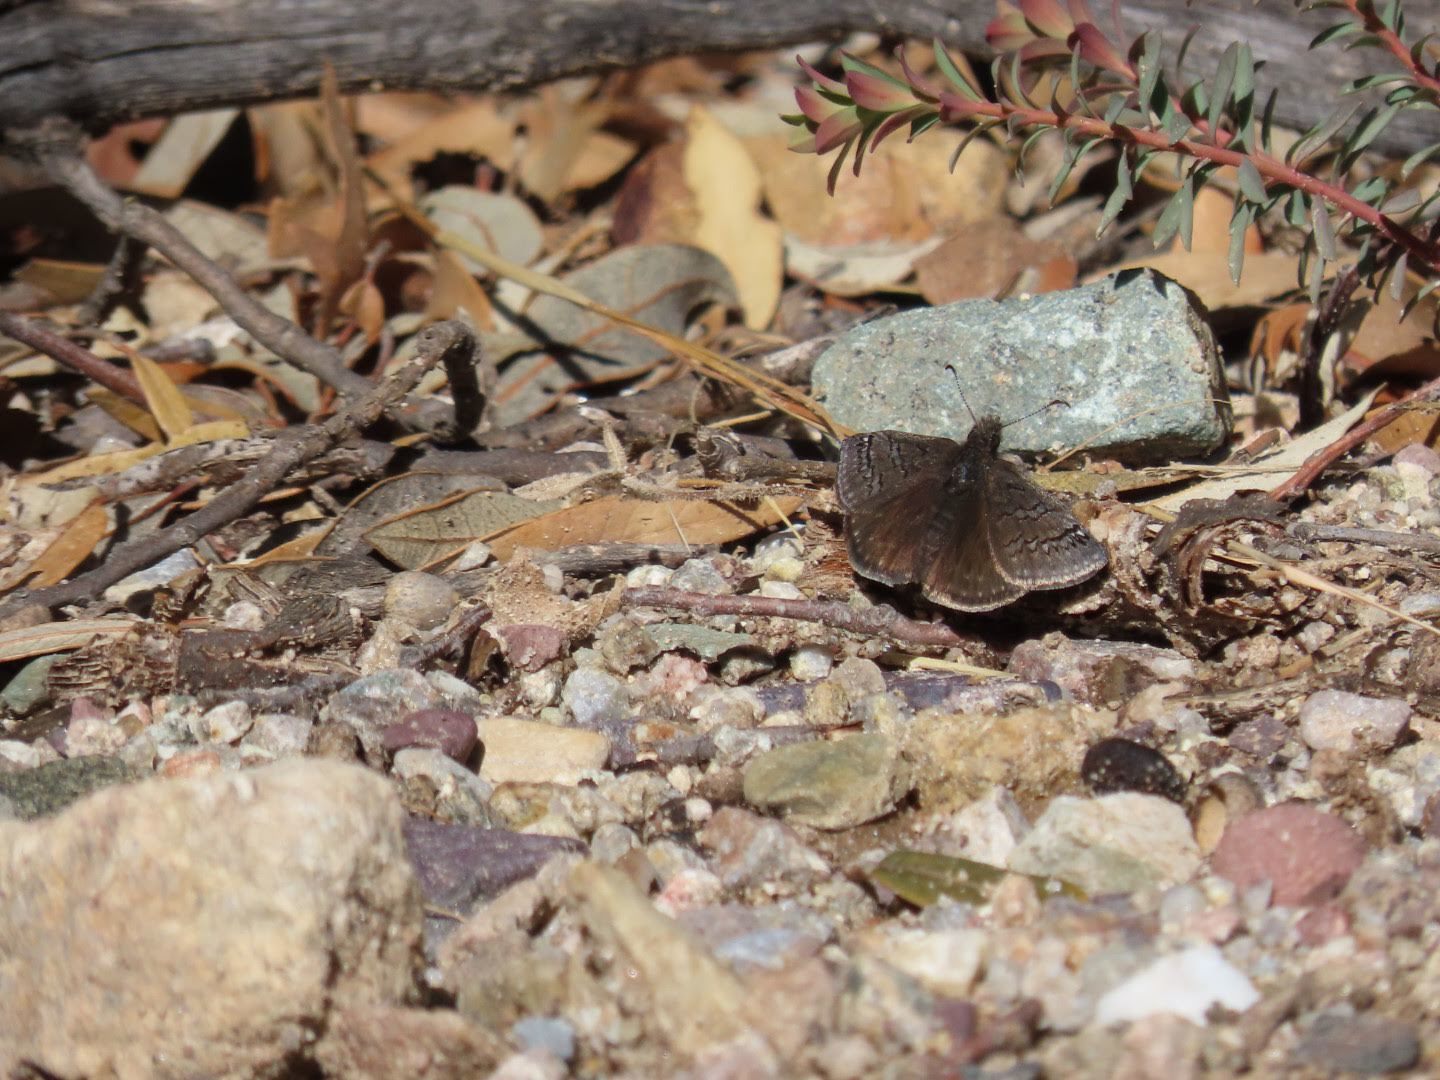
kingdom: Animalia
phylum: Arthropoda
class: Insecta
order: Lepidoptera
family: Hesperiidae
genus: Erynnis
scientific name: Erynnis brizo
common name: Sleepy duskywing
